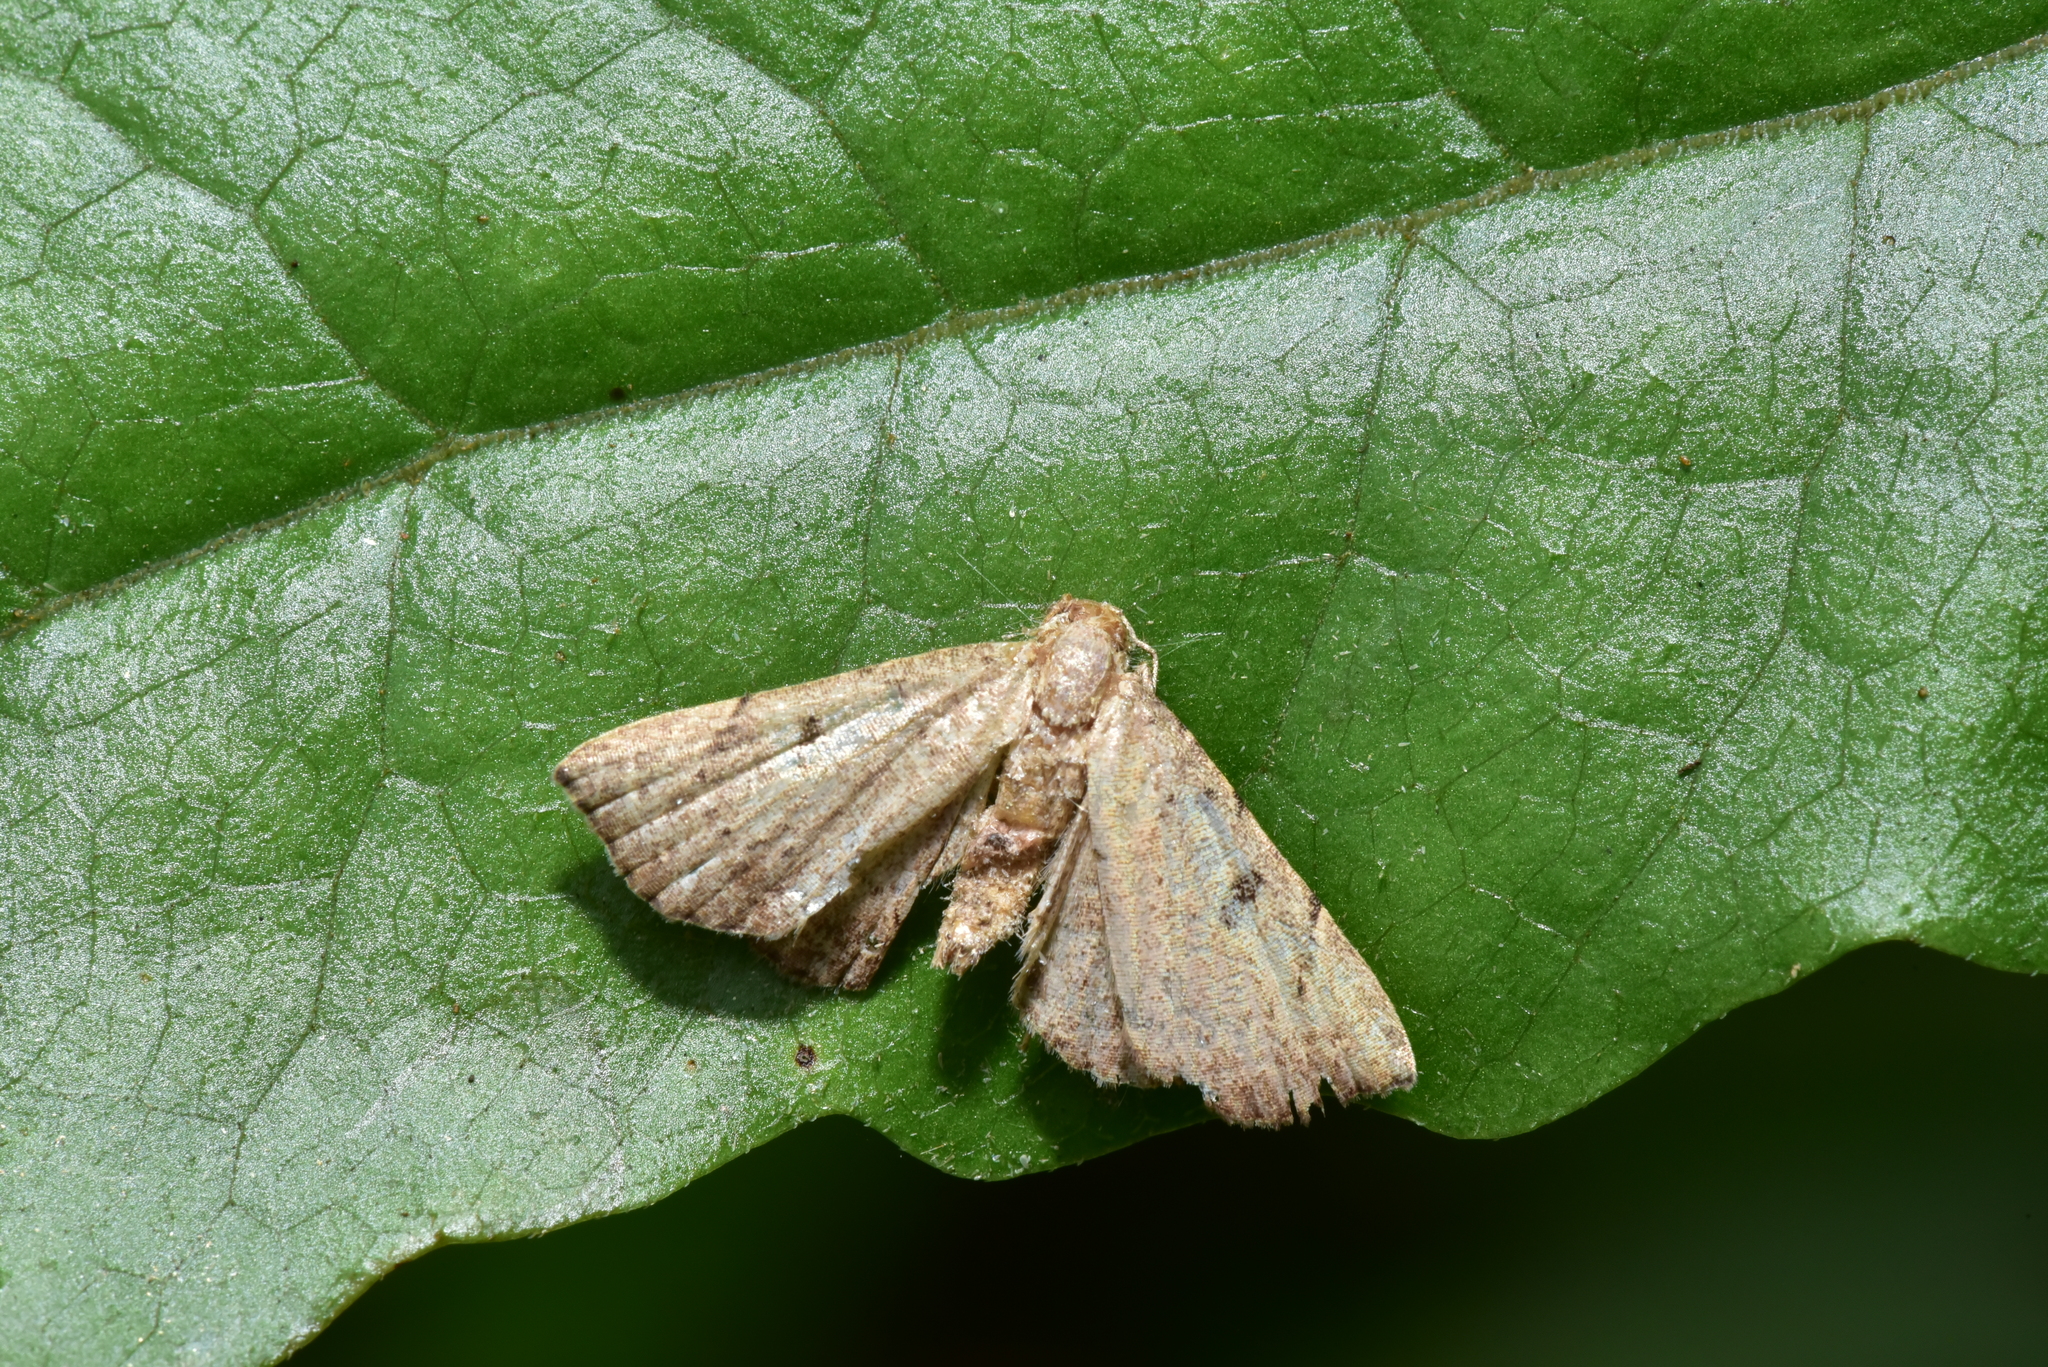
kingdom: Animalia
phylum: Arthropoda
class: Insecta
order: Lepidoptera
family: Erebidae
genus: Progonia
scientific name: Progonia oileusalis
